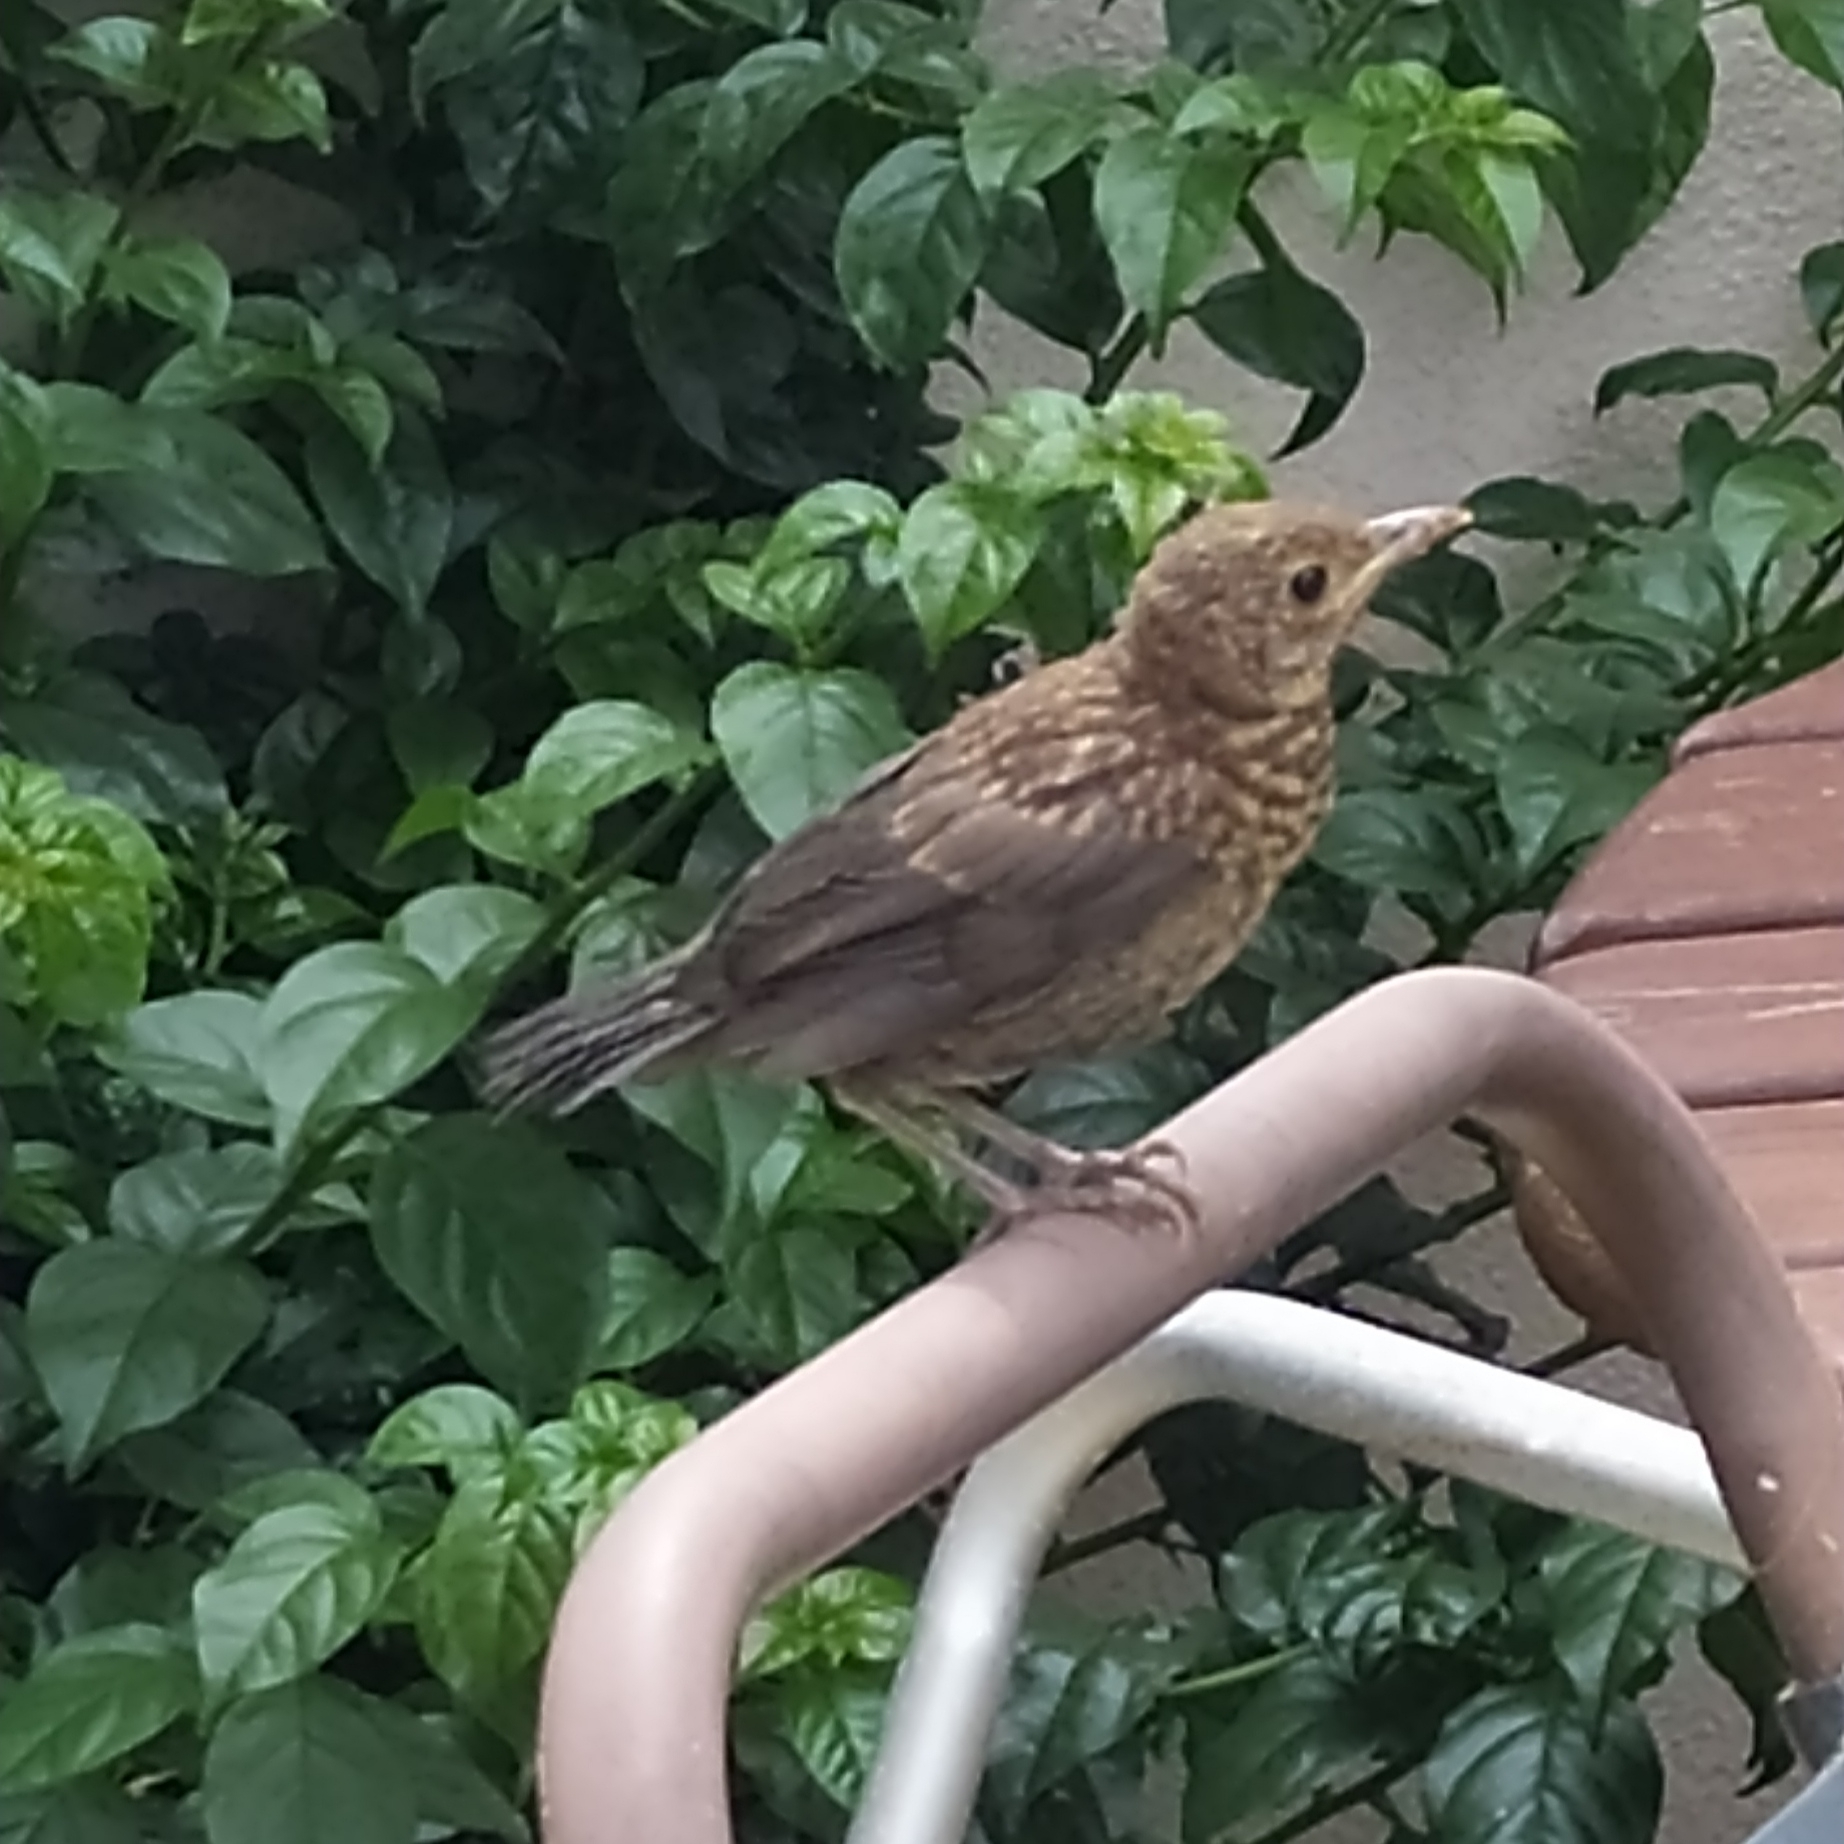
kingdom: Animalia
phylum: Chordata
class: Aves
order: Passeriformes
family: Turdidae
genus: Turdus
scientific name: Turdus merula
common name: Common blackbird
